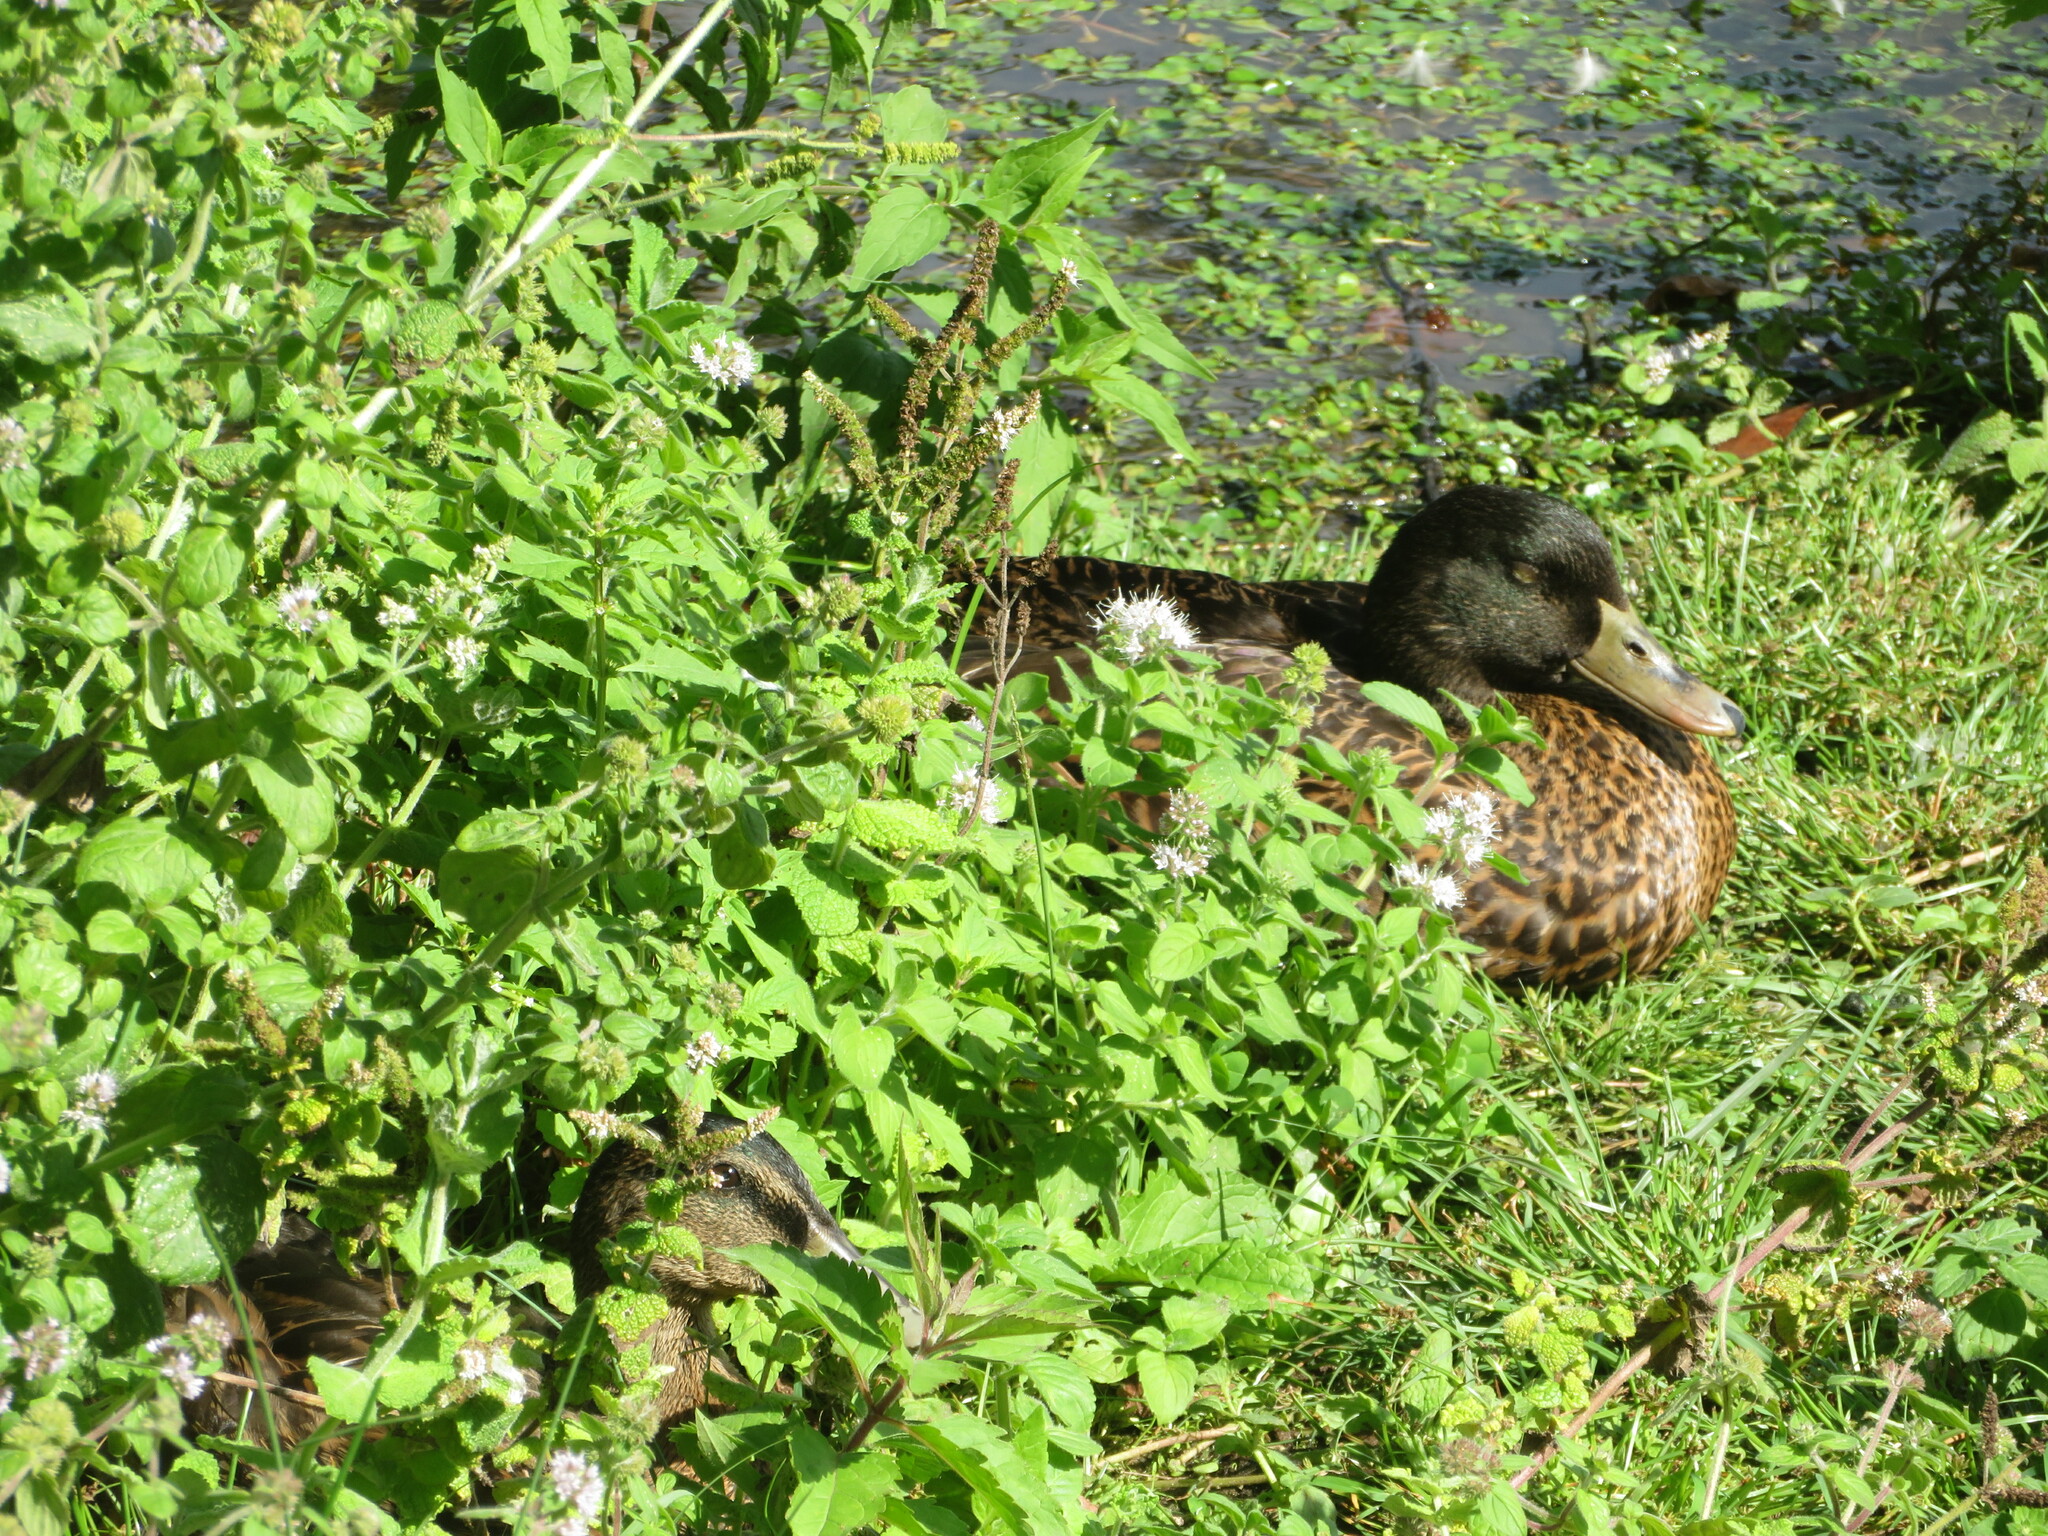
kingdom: Animalia
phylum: Chordata
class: Aves
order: Anseriformes
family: Anatidae
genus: Anas
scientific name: Anas platyrhynchos
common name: Mallard
